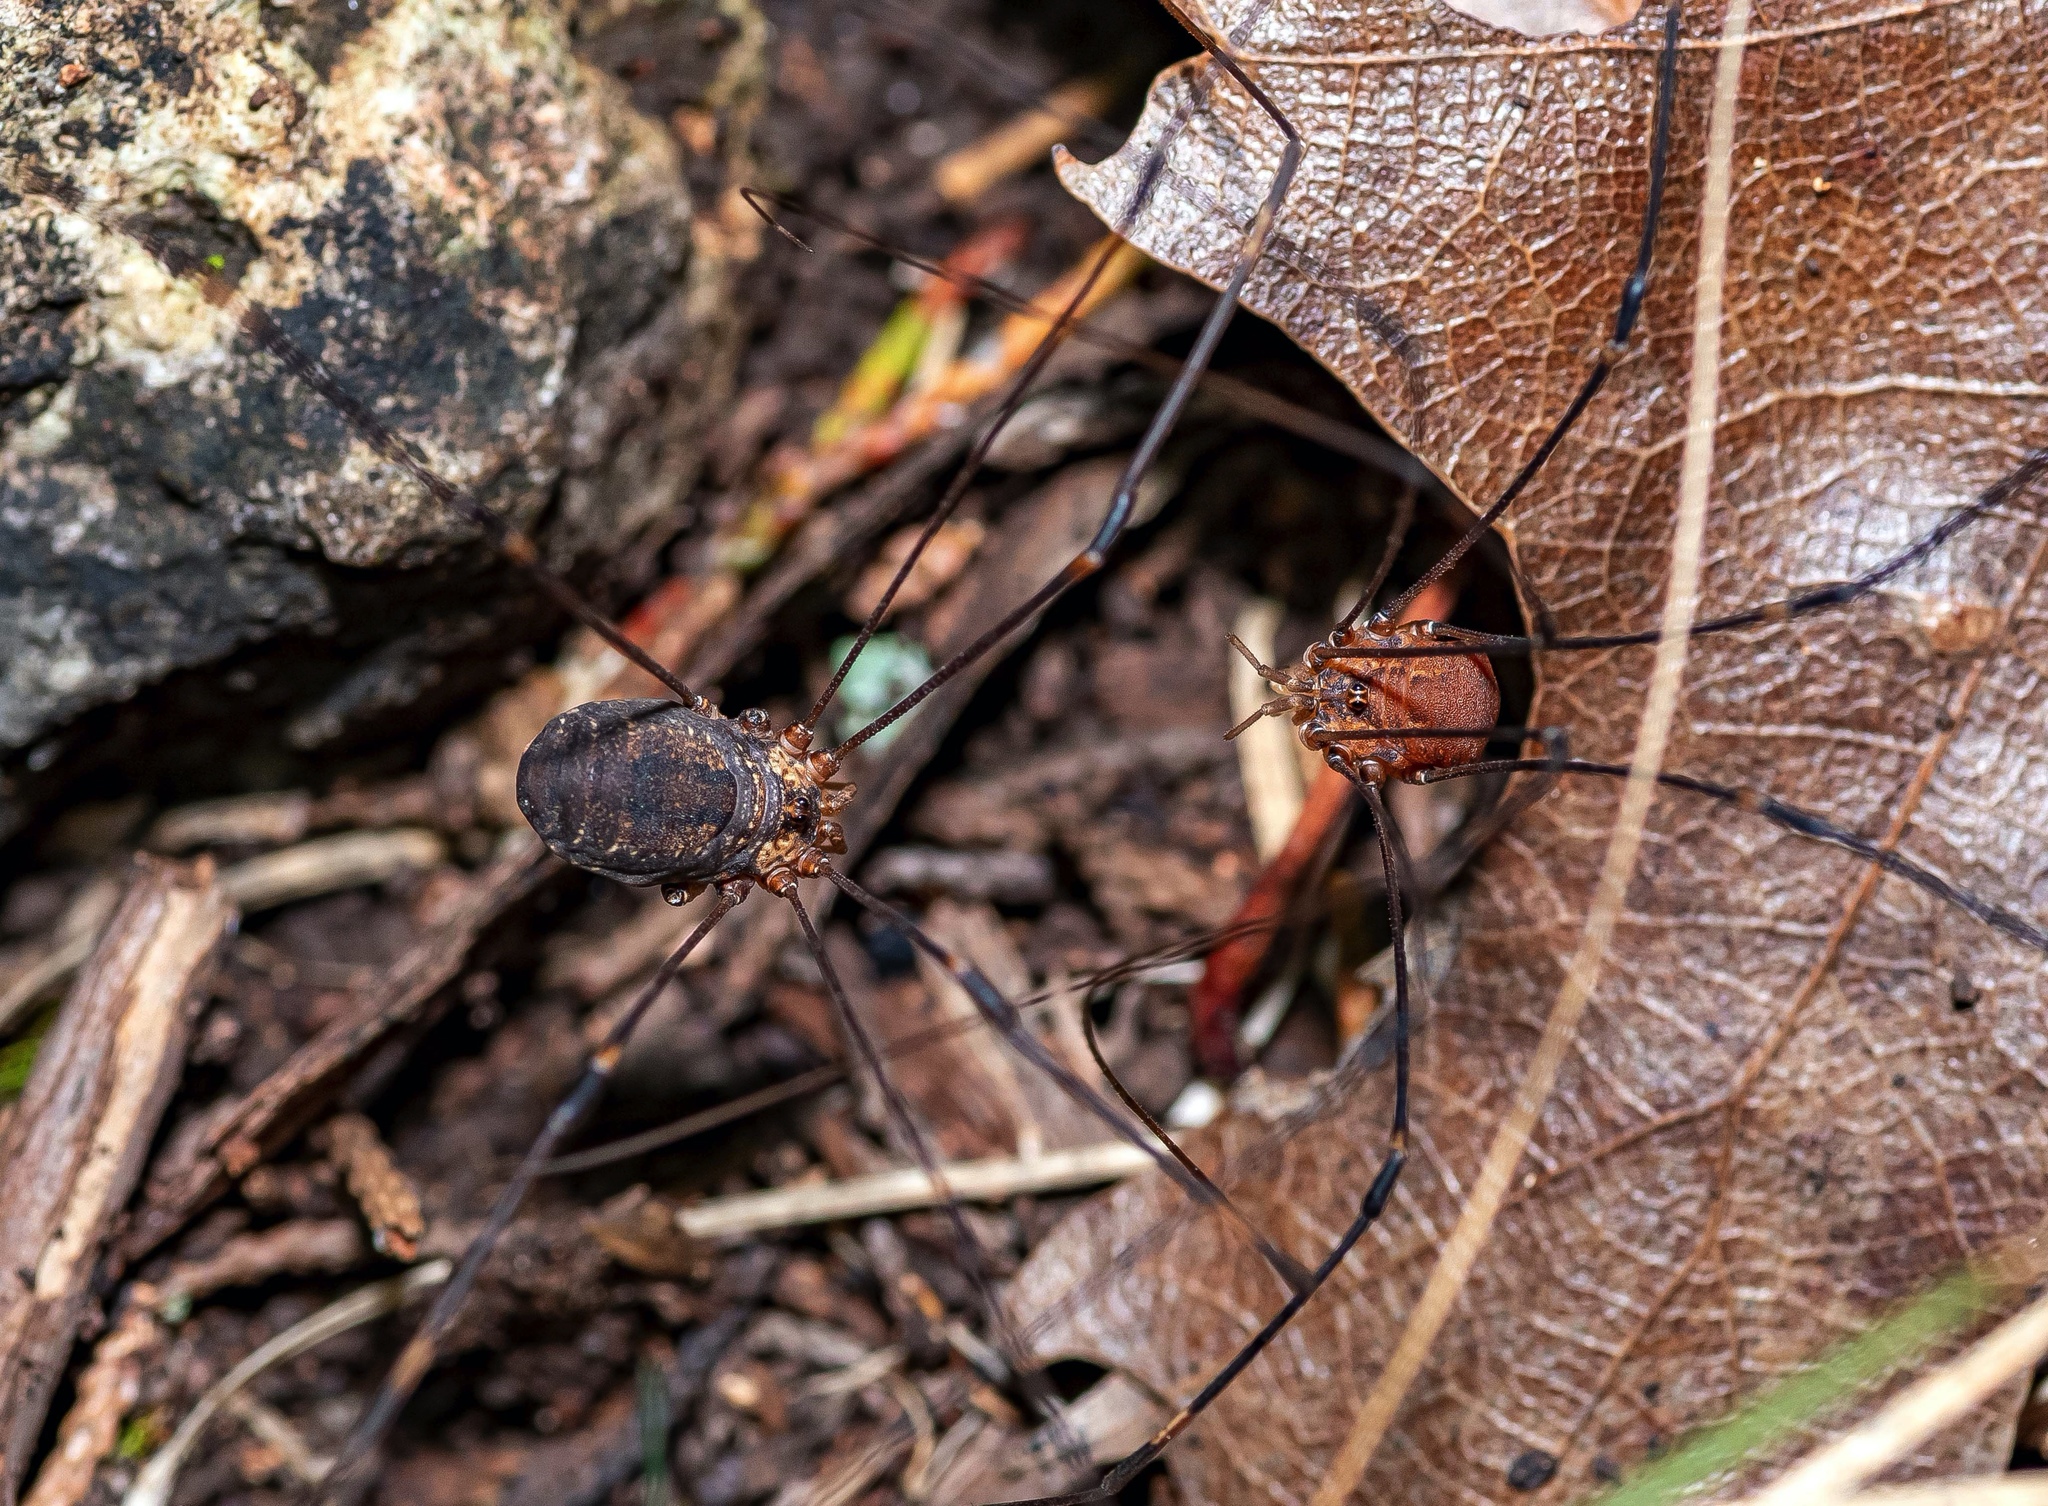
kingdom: Animalia
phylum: Arthropoda
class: Arachnida
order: Opiliones
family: Sclerosomatidae
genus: Leiobunum
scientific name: Leiobunum townsendi
